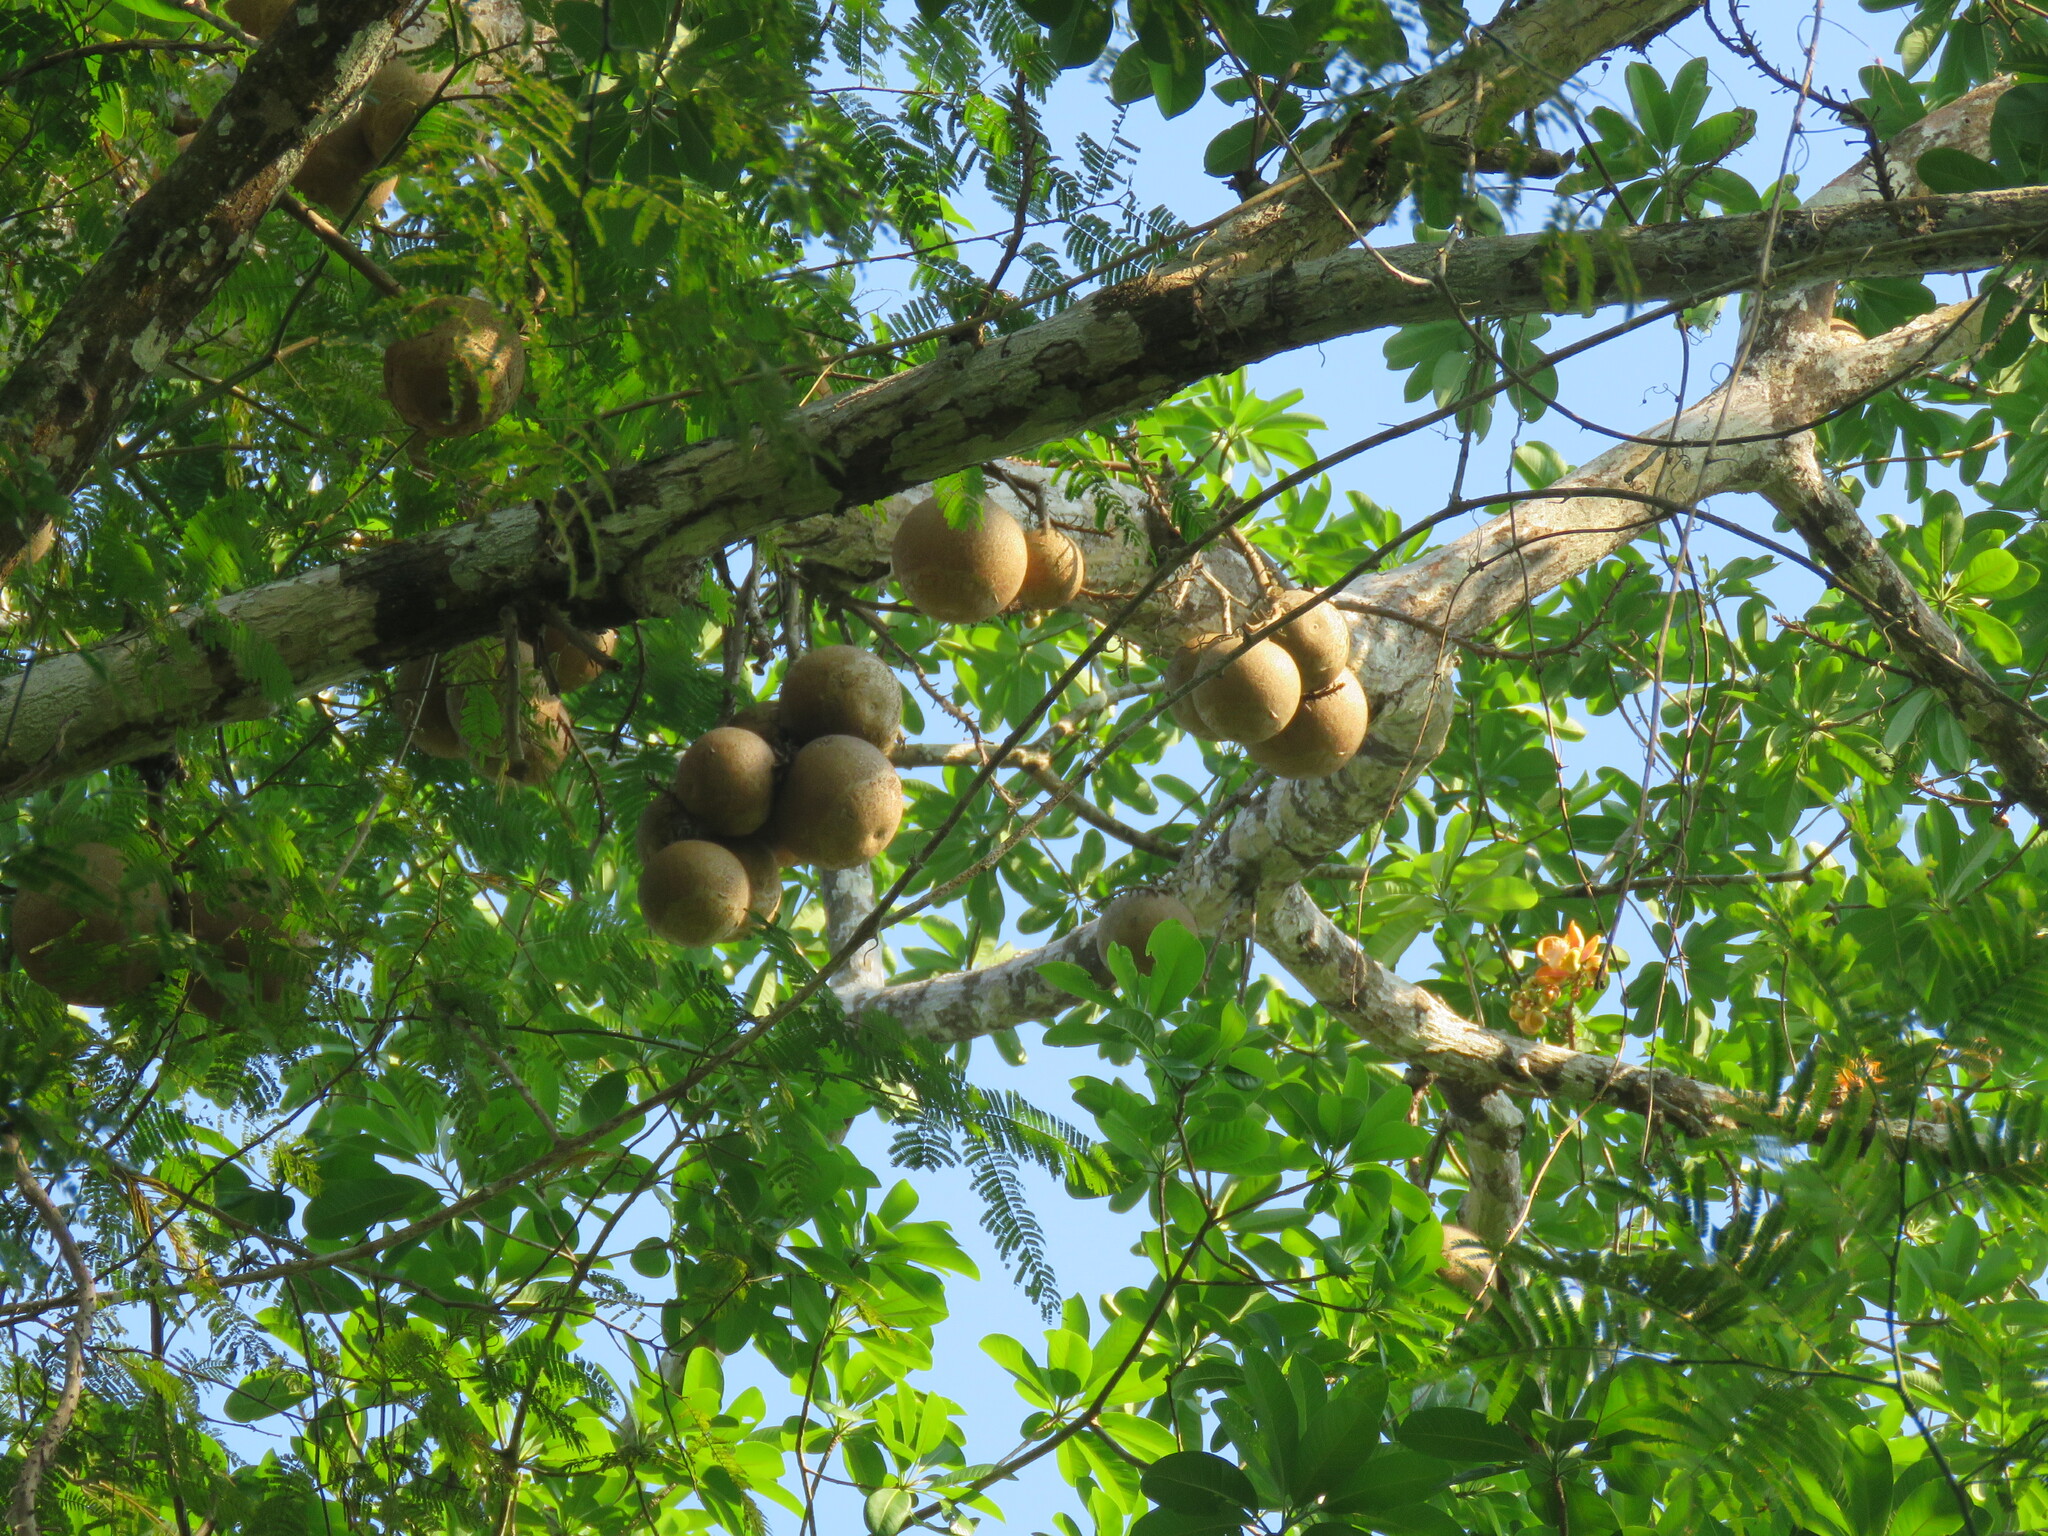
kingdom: Plantae
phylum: Tracheophyta
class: Magnoliopsida
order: Ericales
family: Lecythidaceae
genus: Couroupita
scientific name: Couroupita guianensis
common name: Cannonball tree
